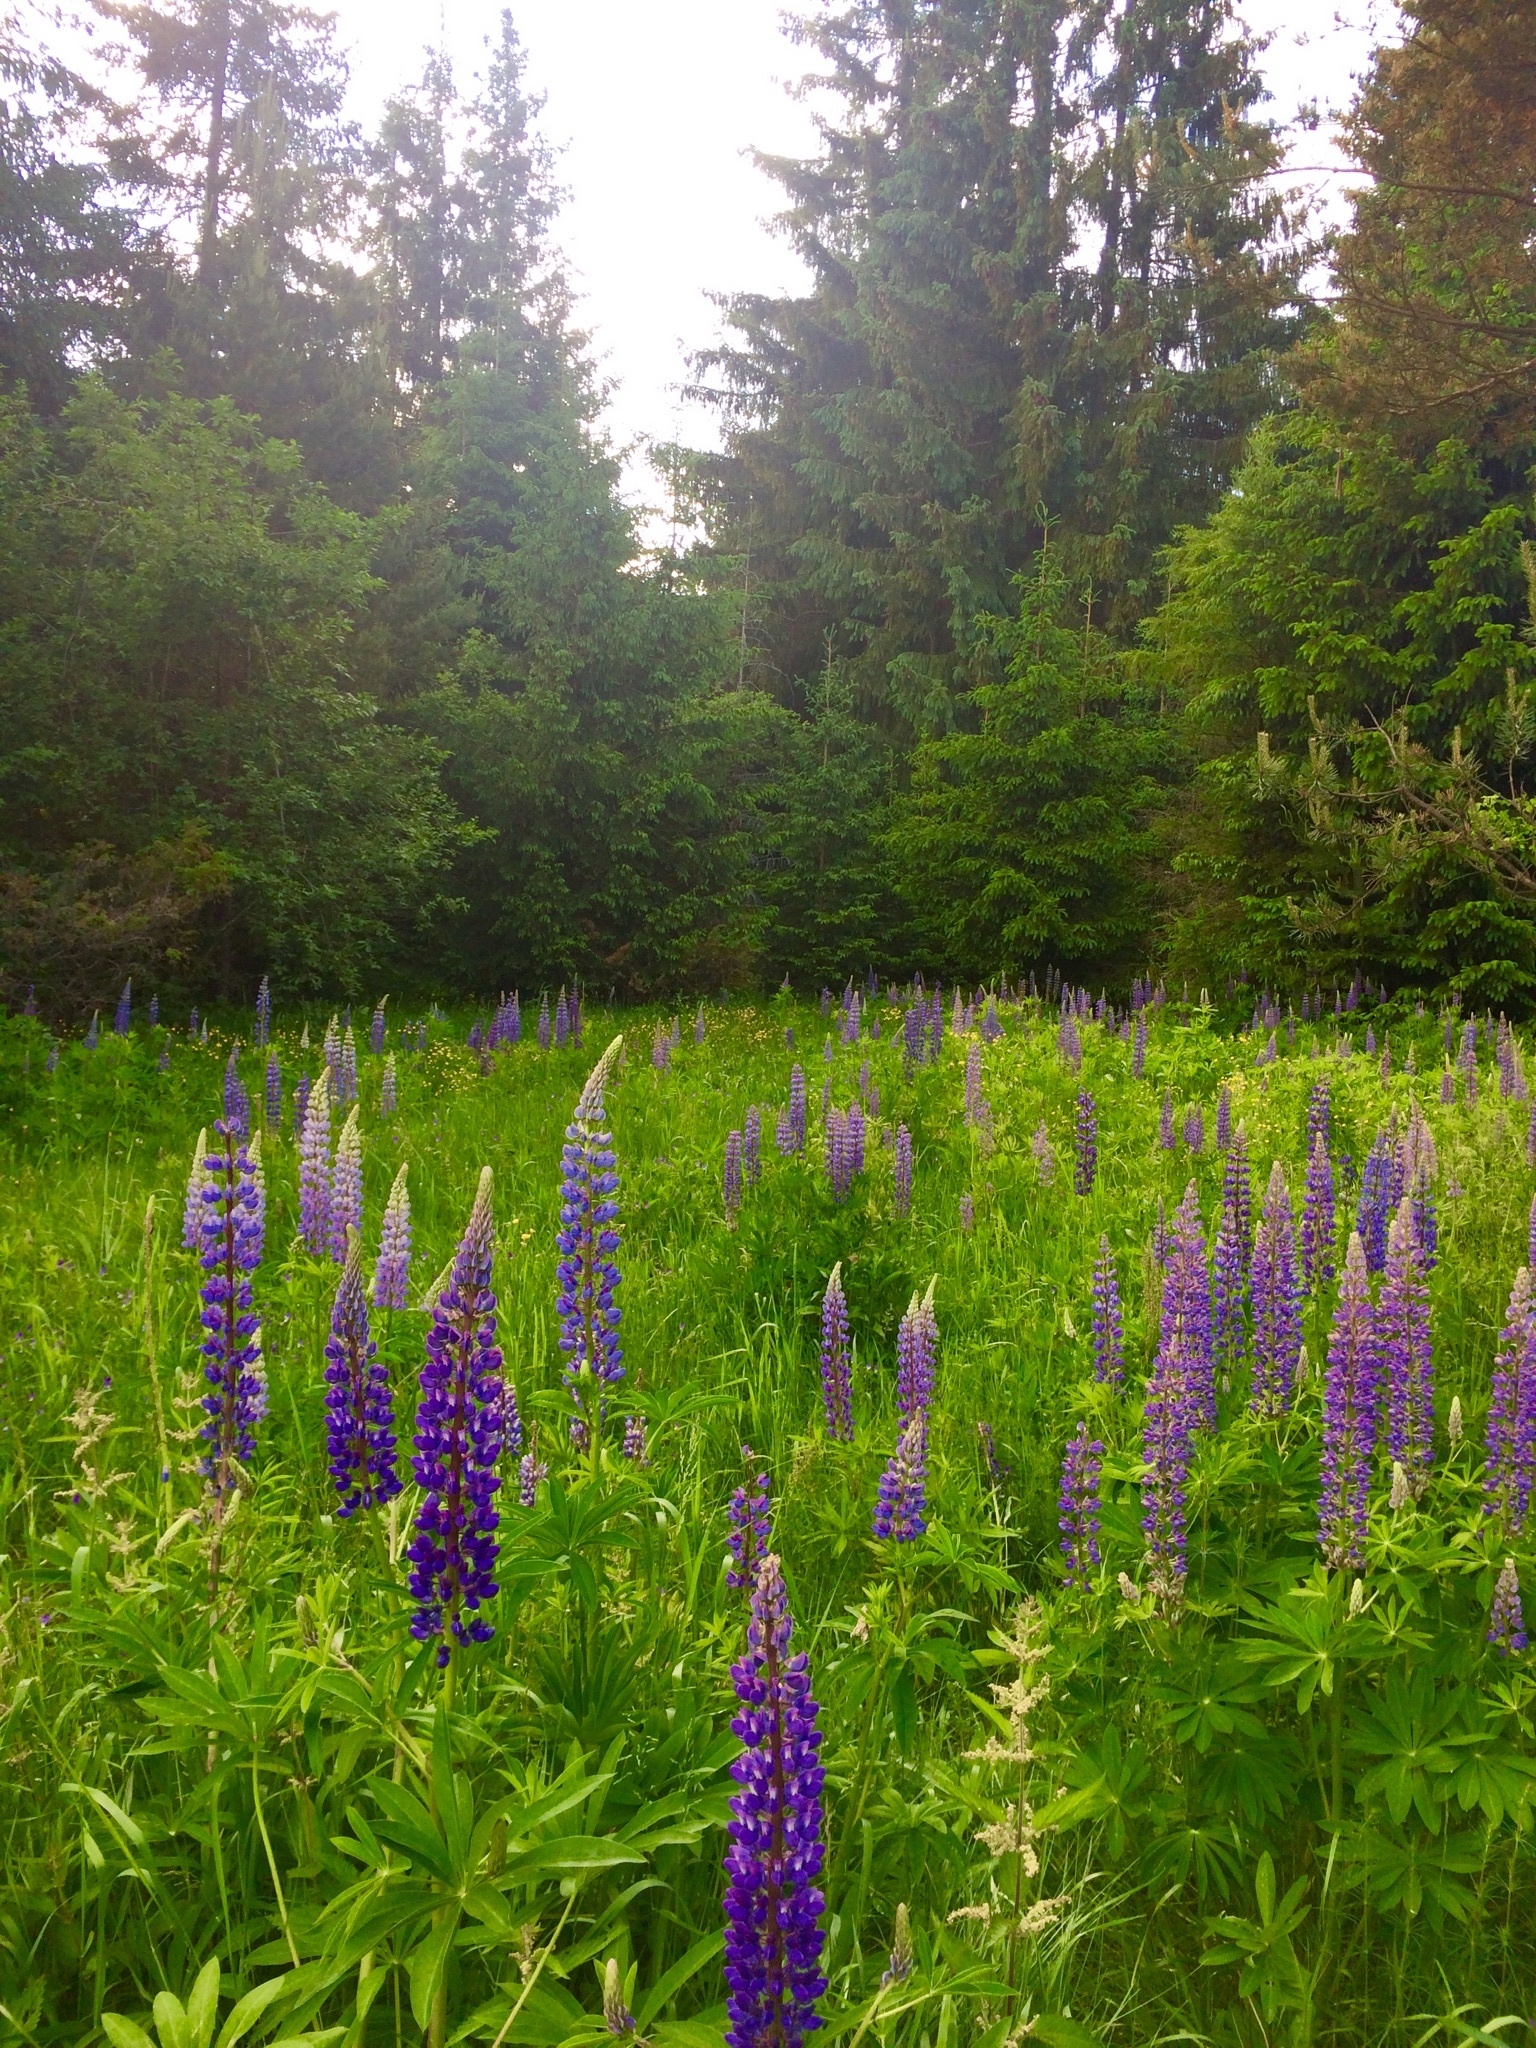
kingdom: Plantae
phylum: Tracheophyta
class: Magnoliopsida
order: Fabales
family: Fabaceae
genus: Lupinus
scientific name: Lupinus polyphyllus
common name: Garden lupin
